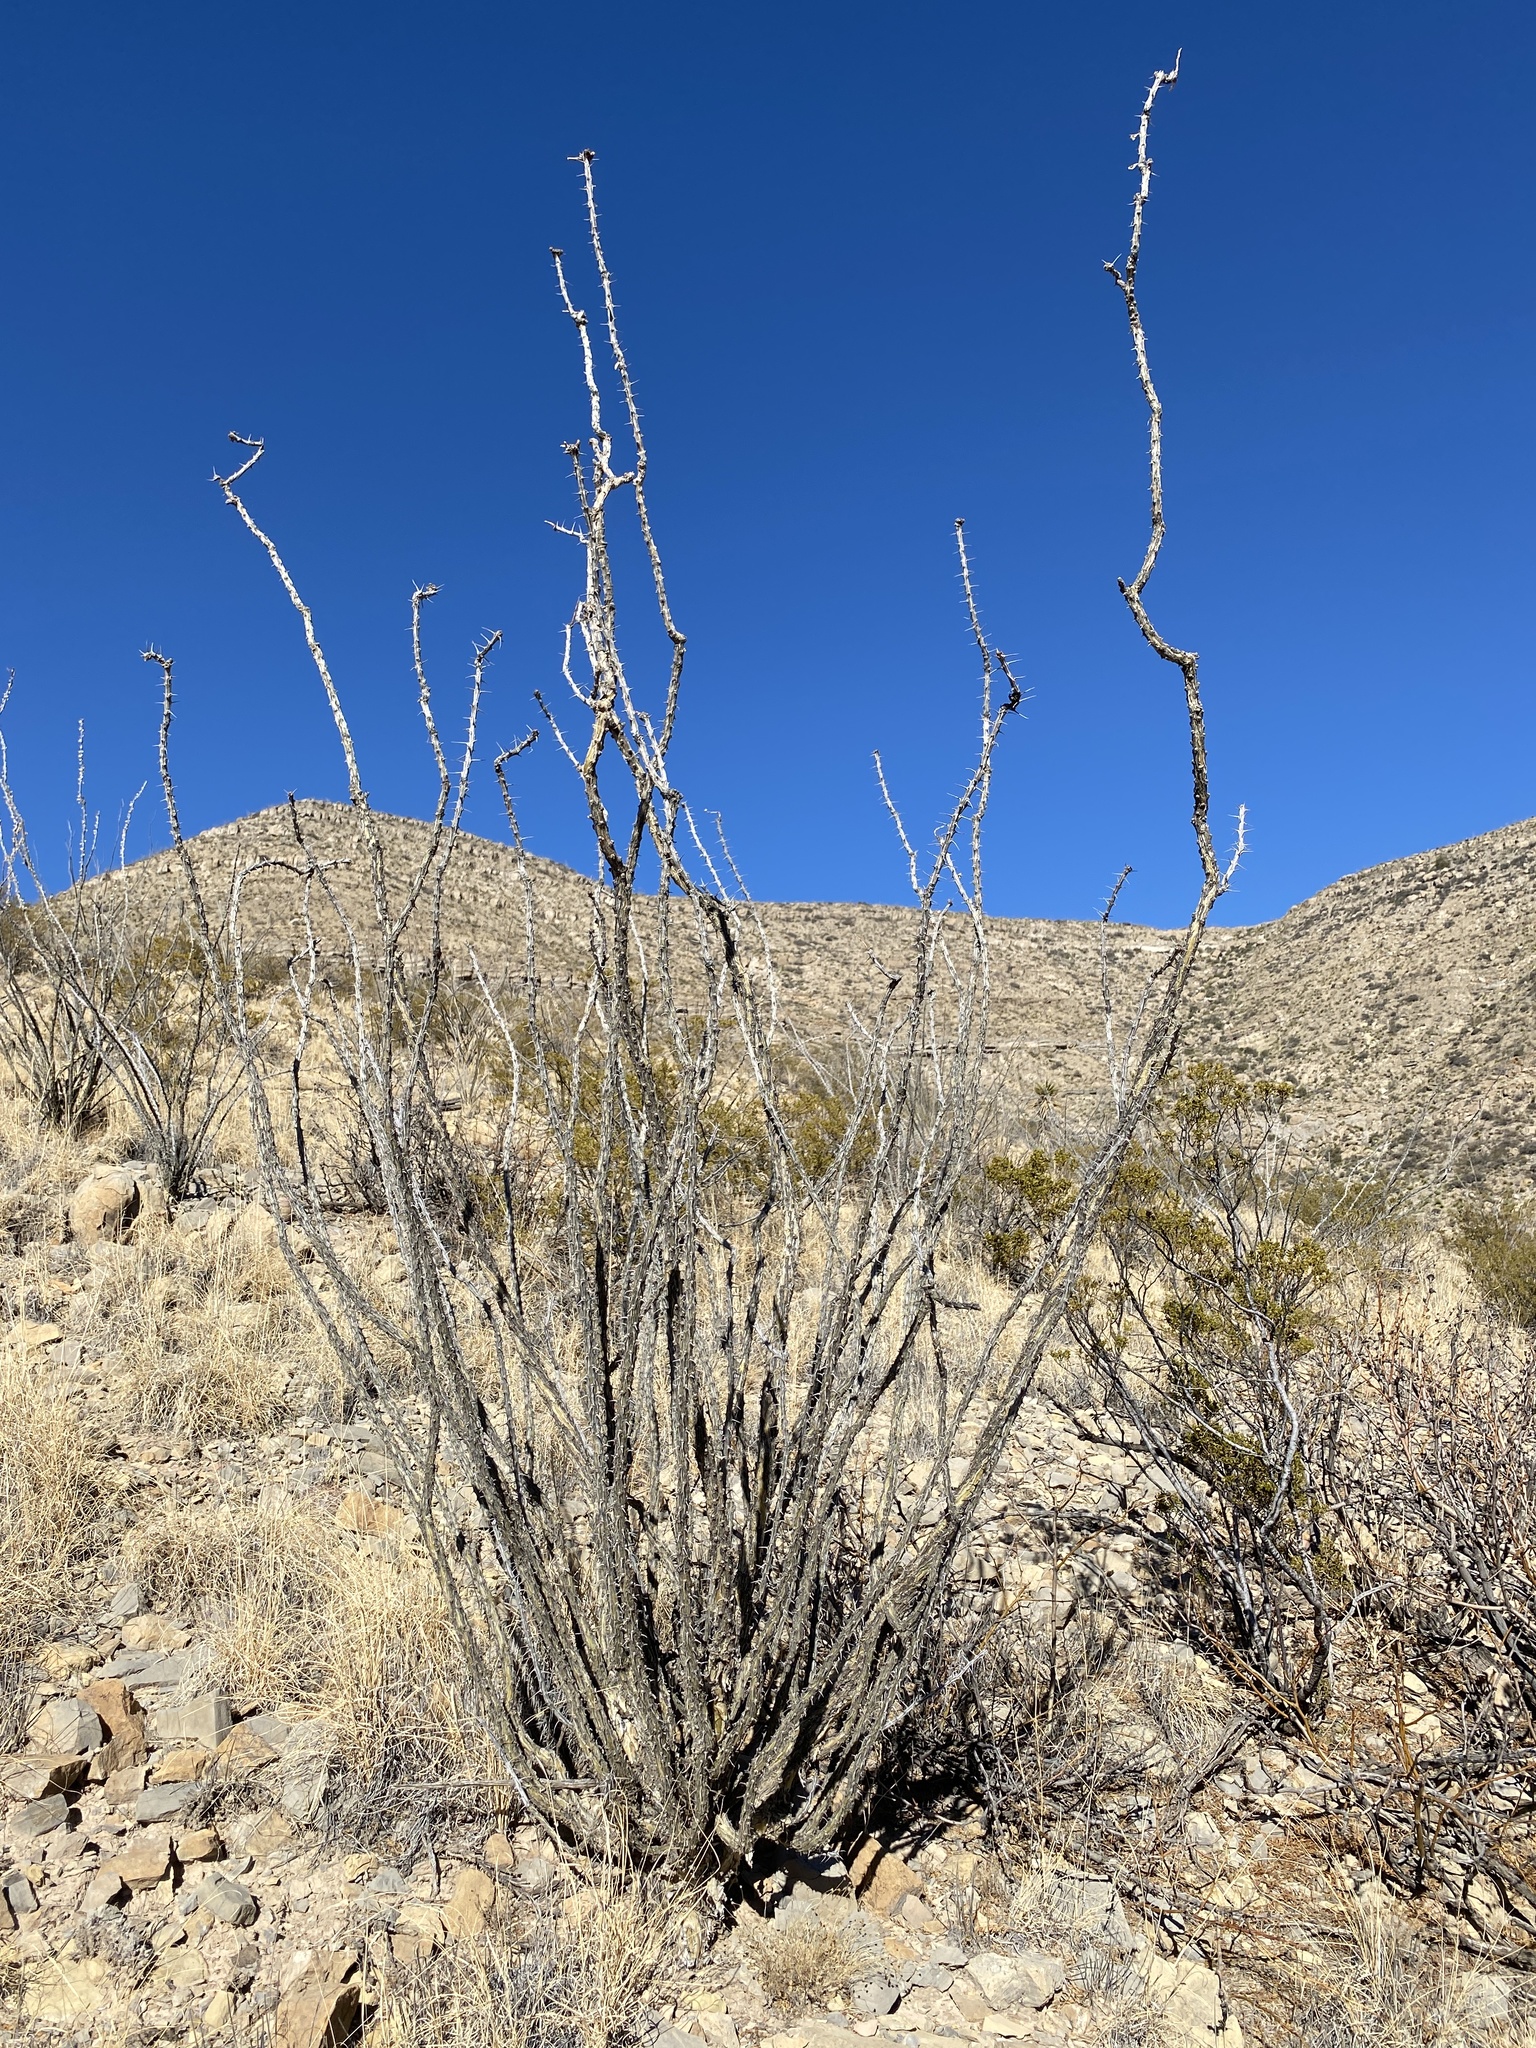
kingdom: Plantae
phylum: Tracheophyta
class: Magnoliopsida
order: Ericales
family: Fouquieriaceae
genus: Fouquieria
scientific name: Fouquieria splendens
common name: Vine-cactus
